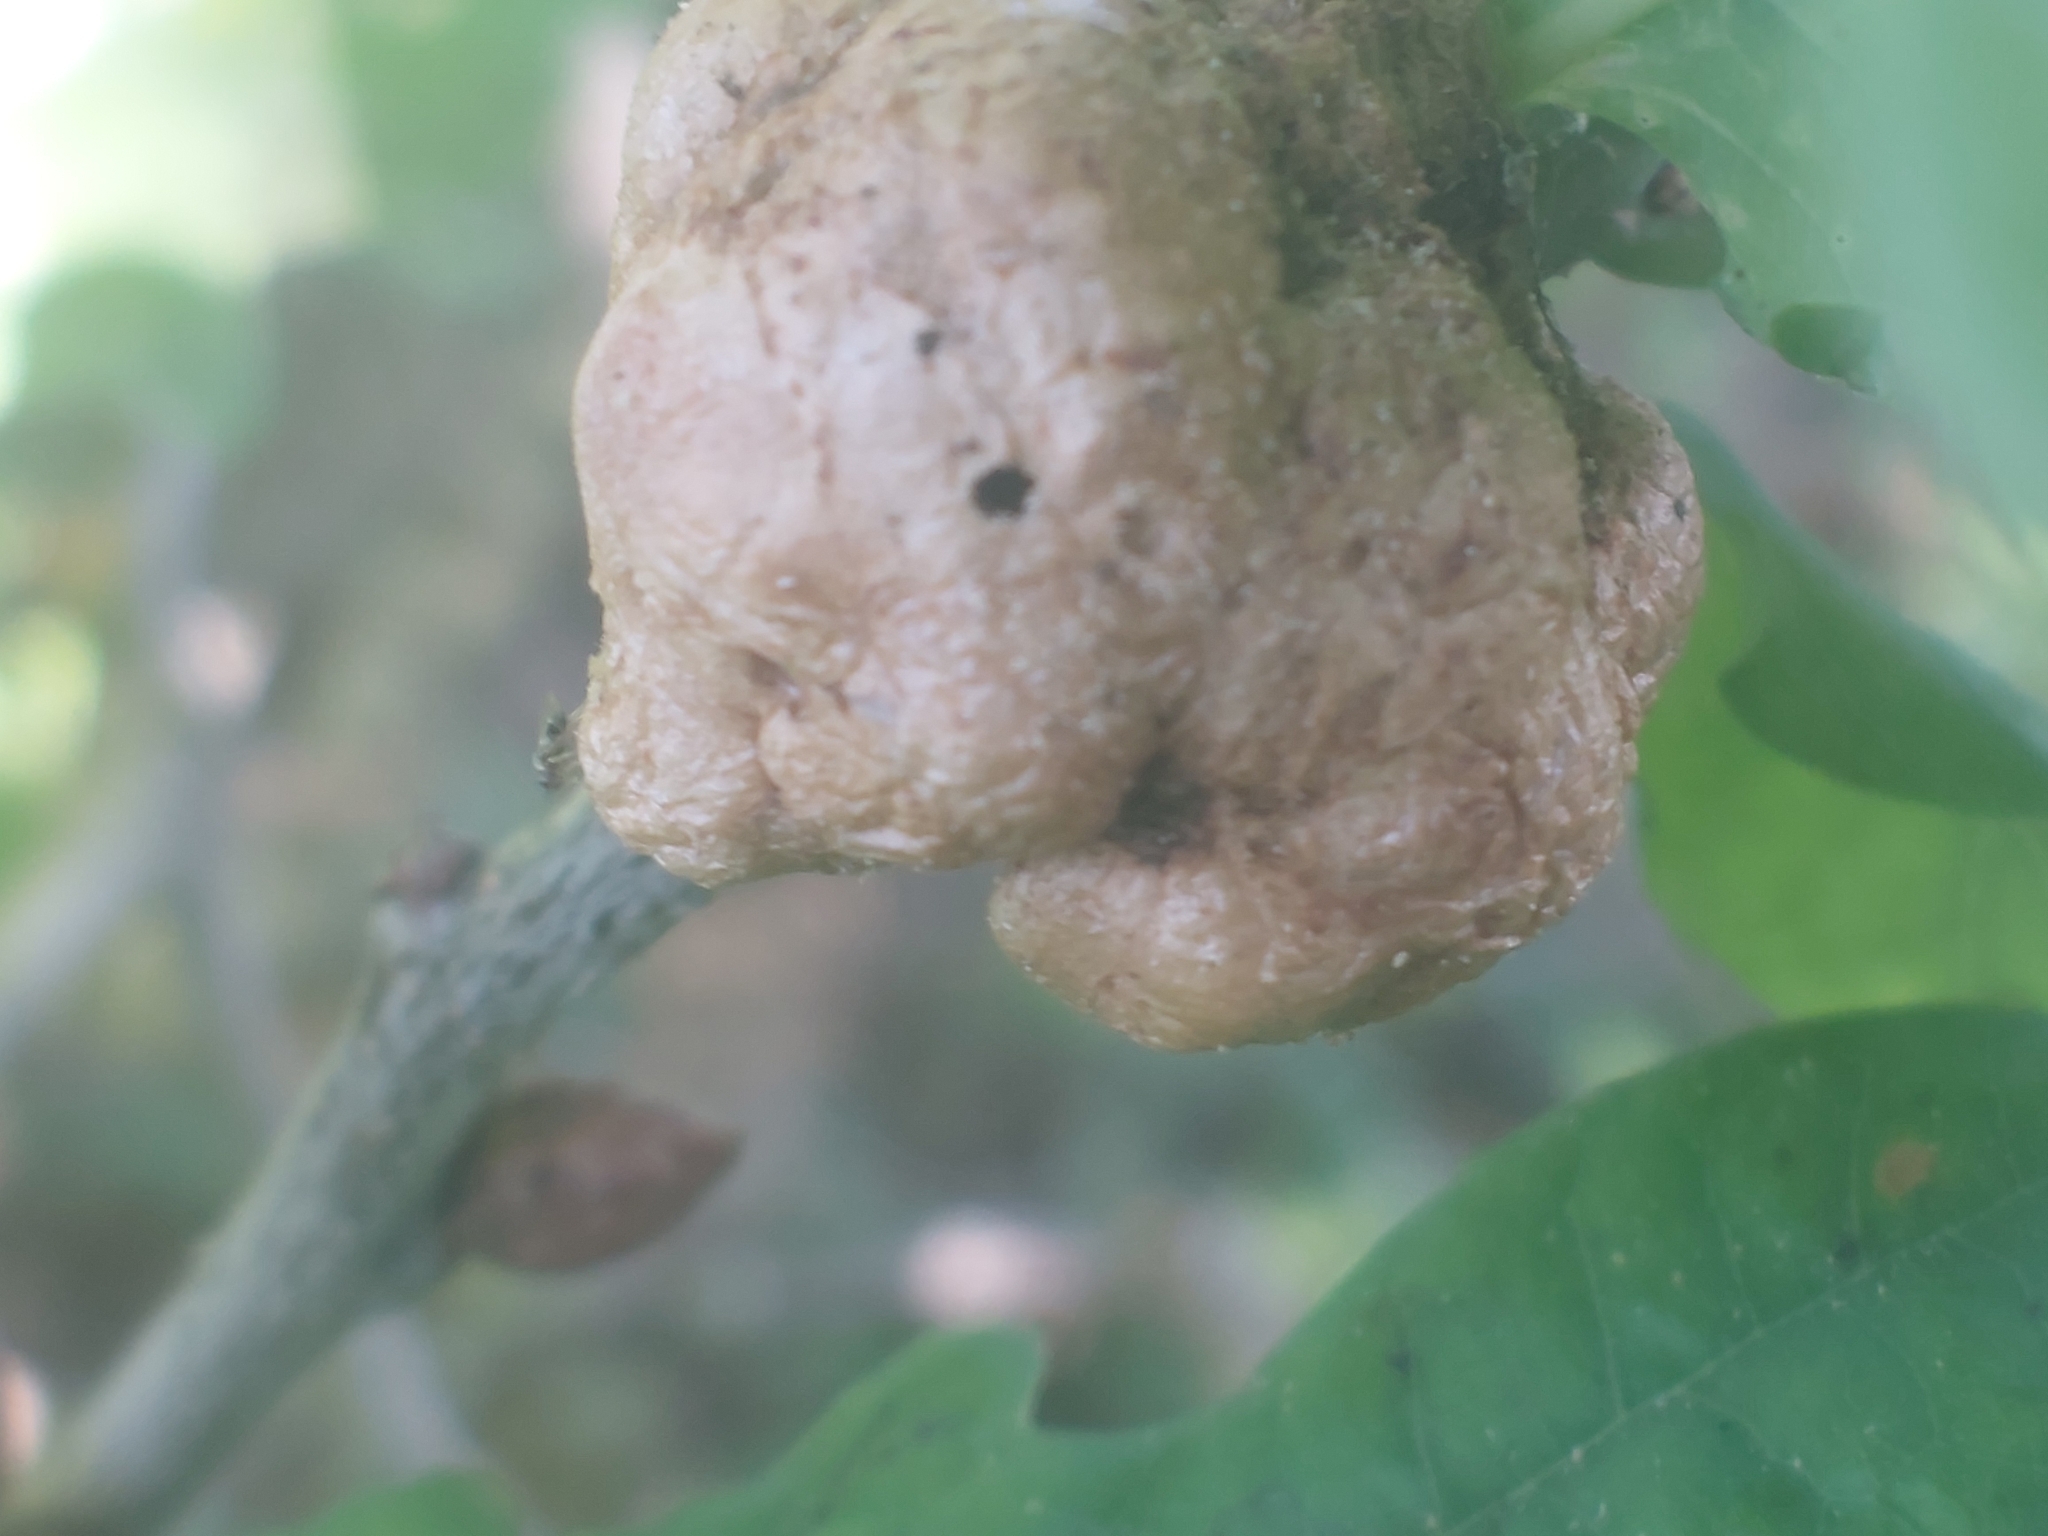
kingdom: Animalia
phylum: Arthropoda
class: Insecta
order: Hymenoptera
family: Cynipidae
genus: Biorhiza
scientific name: Biorhiza pallida
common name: Oak apple
